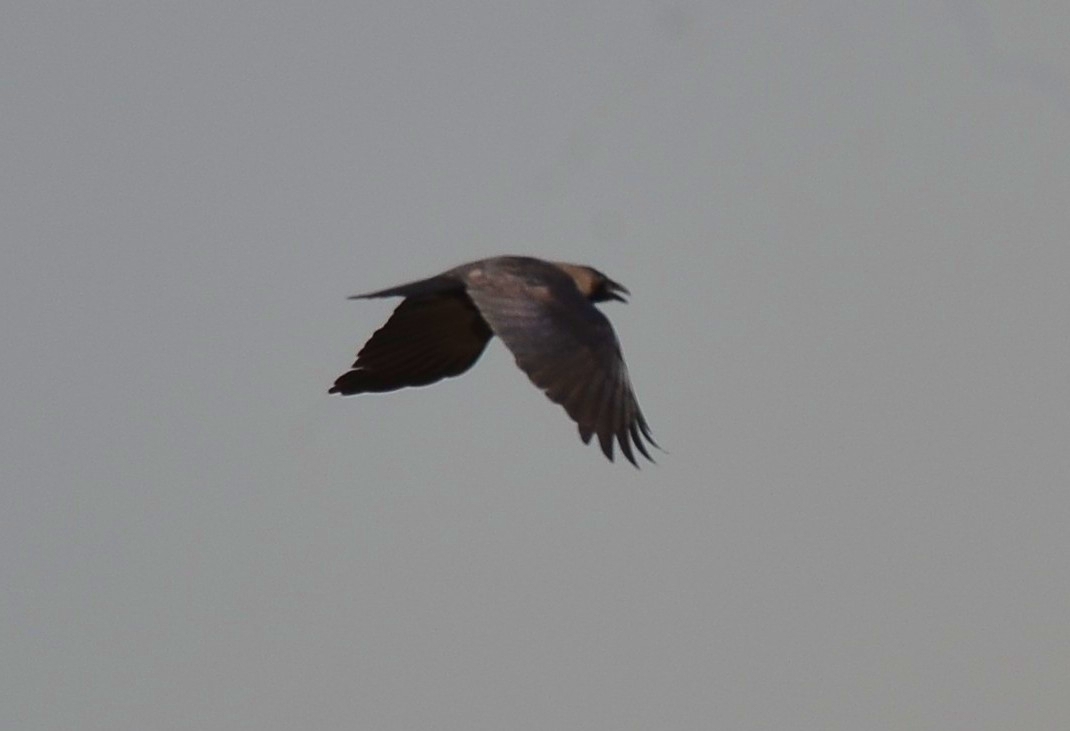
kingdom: Animalia
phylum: Chordata
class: Aves
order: Passeriformes
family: Corvidae
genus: Corvus
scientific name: Corvus splendens
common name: House crow
